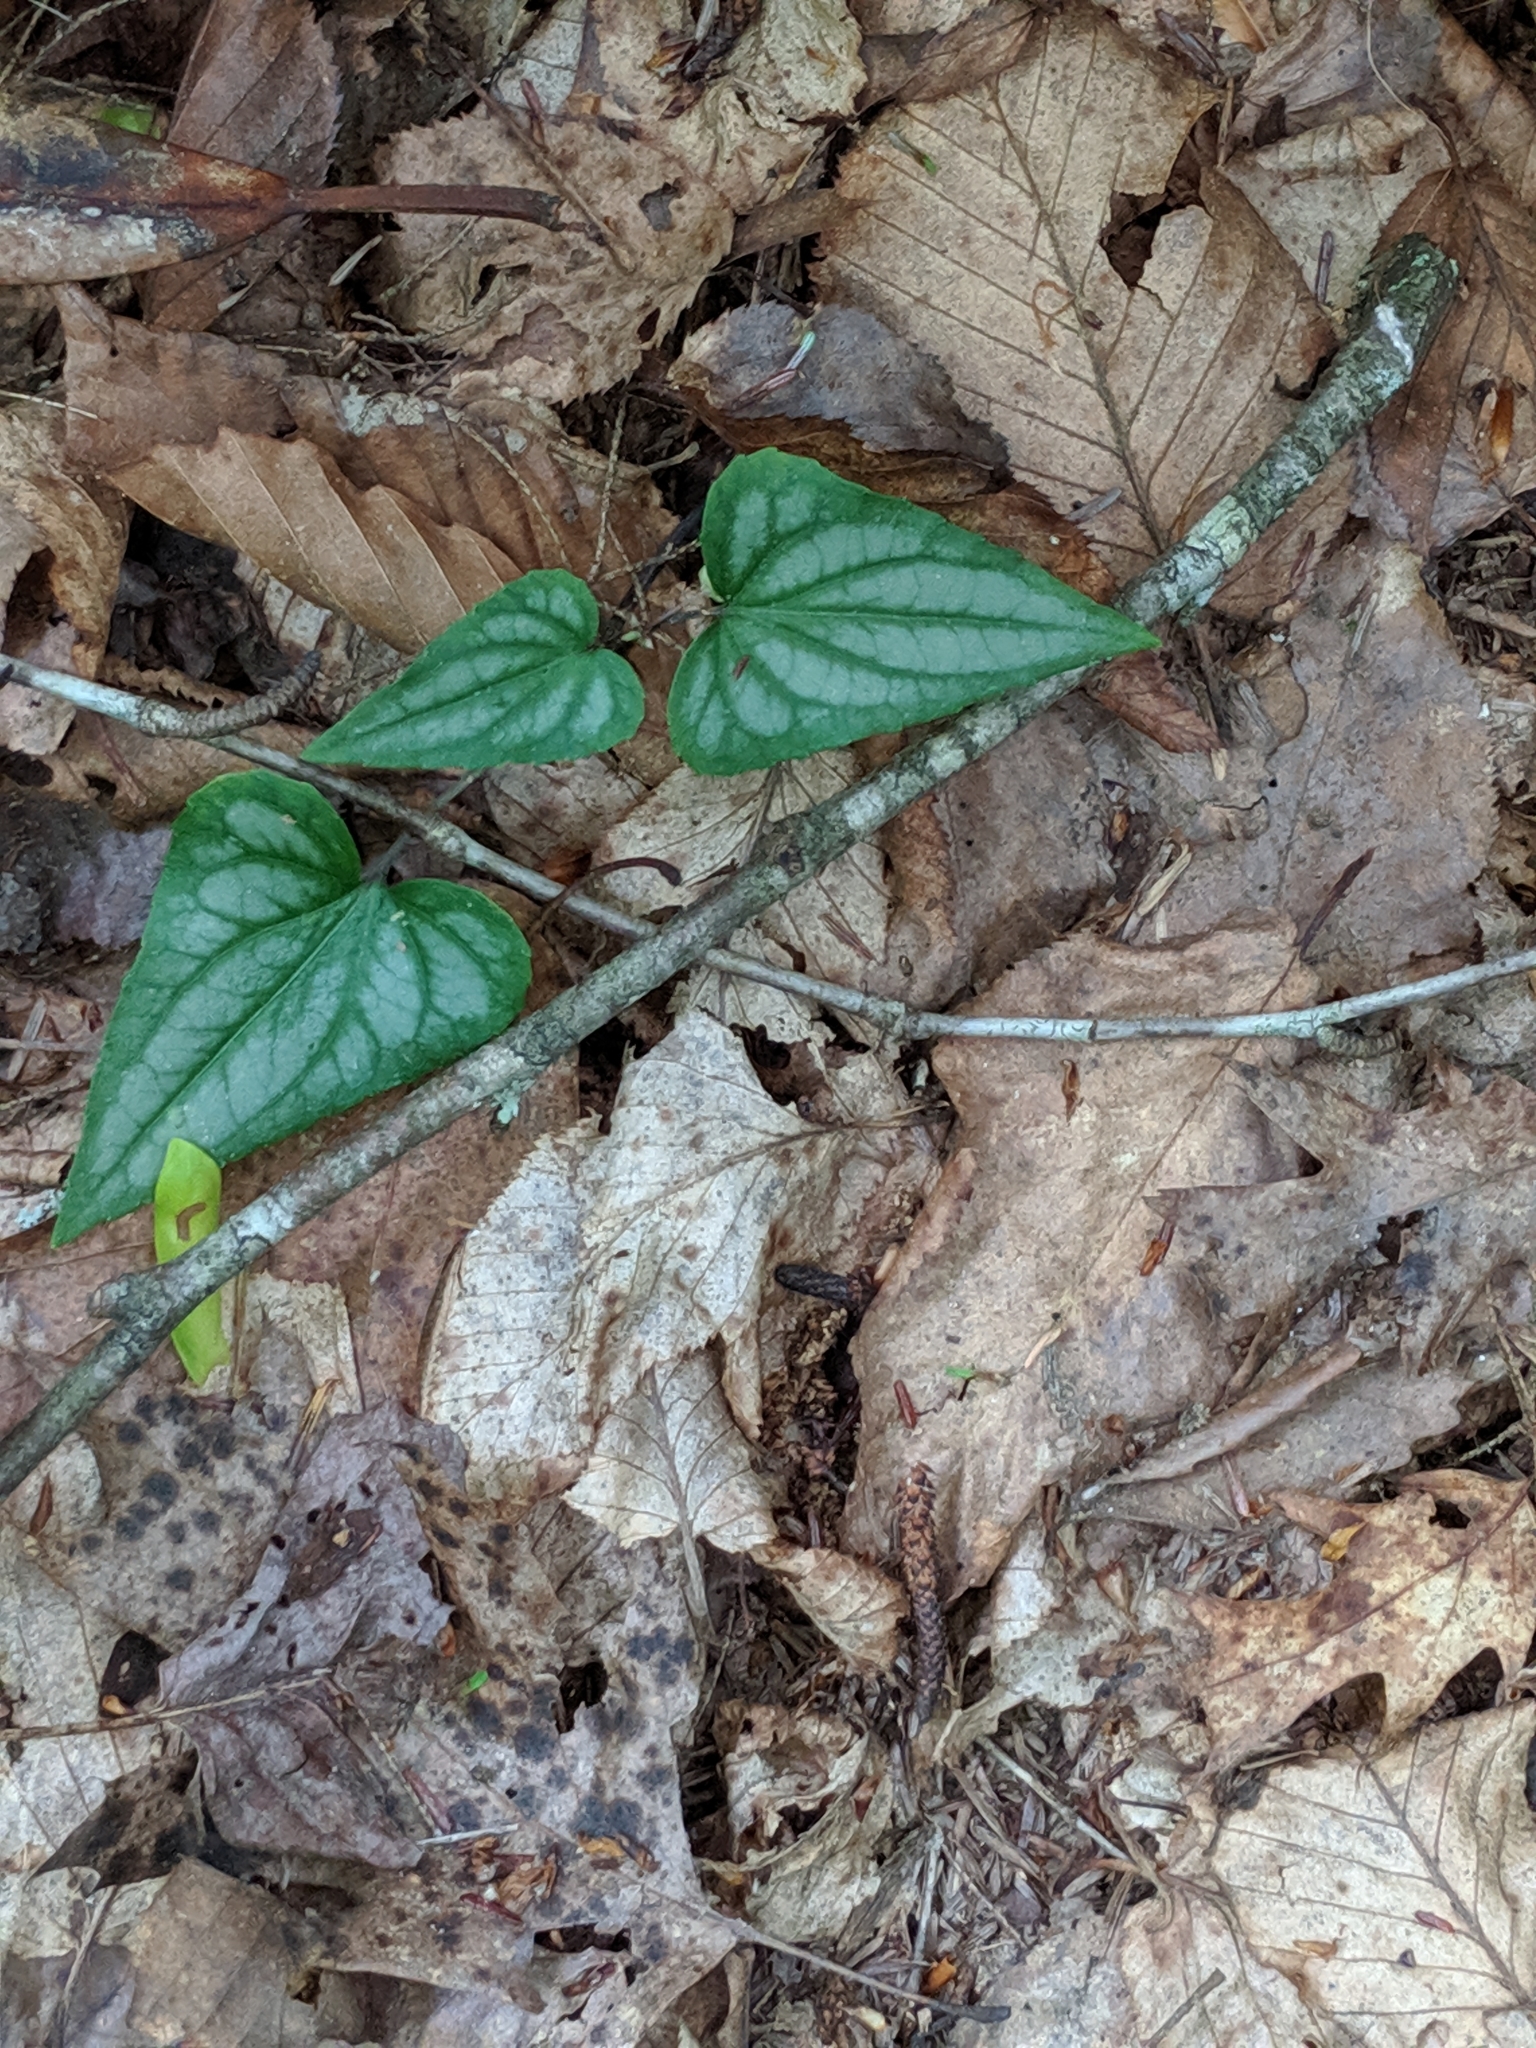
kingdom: Plantae
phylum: Tracheophyta
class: Magnoliopsida
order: Malpighiales
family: Violaceae
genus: Viola
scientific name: Viola hastata
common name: Spear-leaf violet
